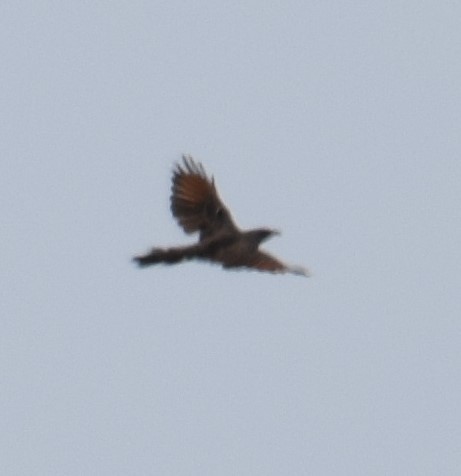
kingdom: Animalia
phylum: Chordata
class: Aves
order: Passeriformes
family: Meliphagidae
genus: Anthochaera
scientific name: Anthochaera chrysoptera
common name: Little wattlebird
